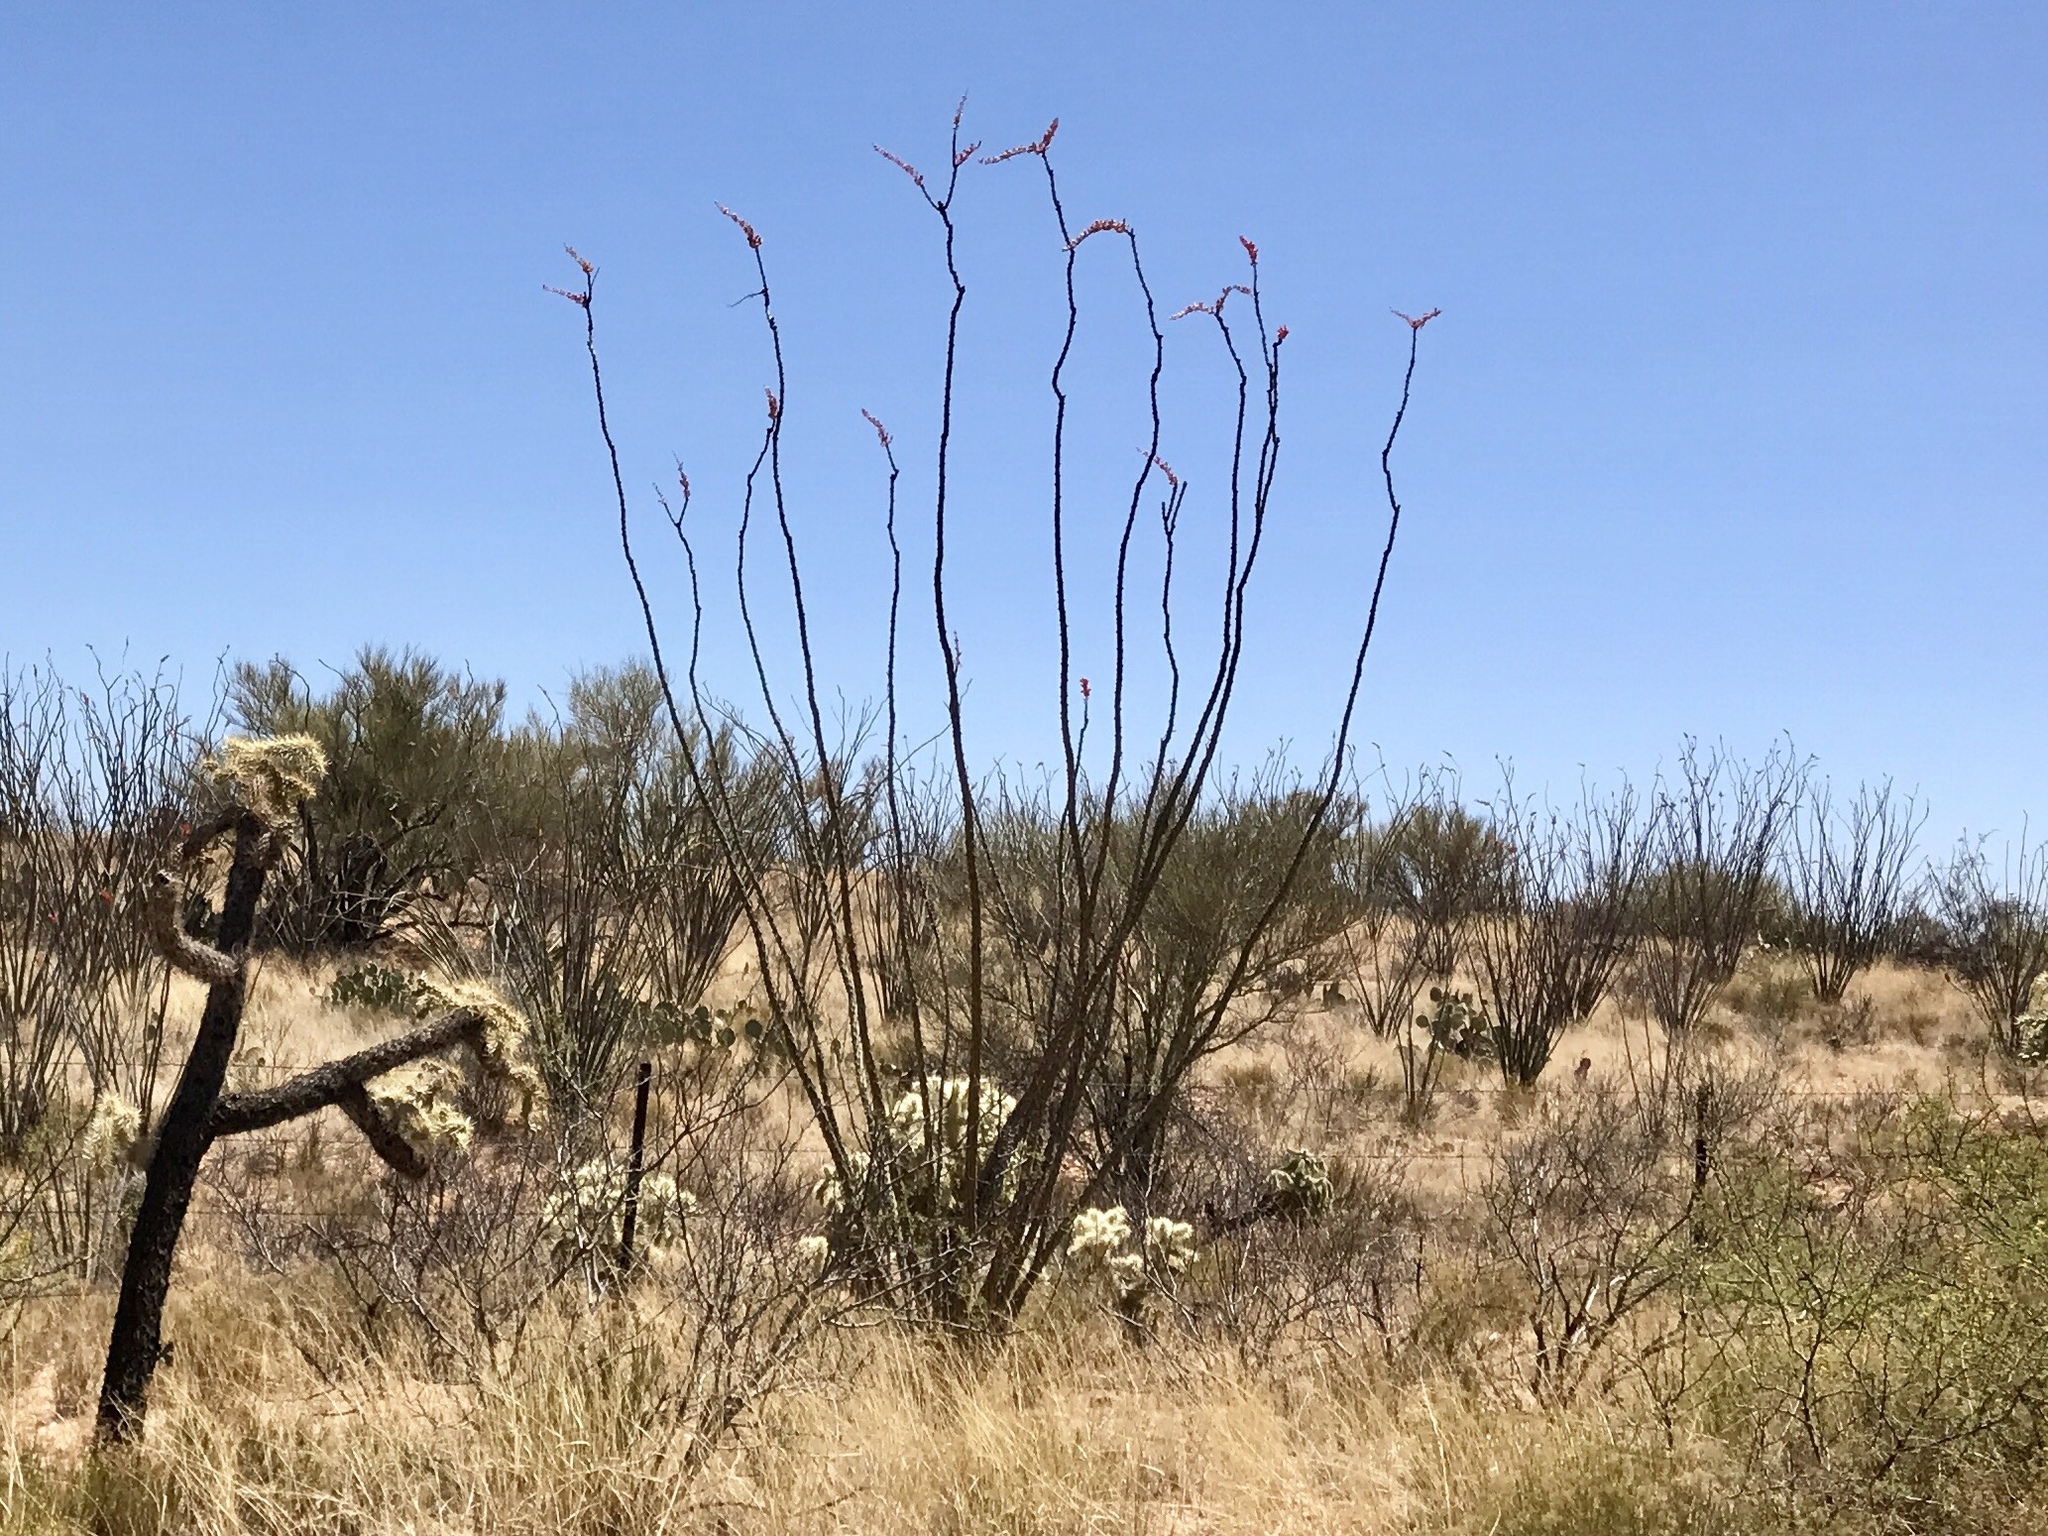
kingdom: Plantae
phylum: Tracheophyta
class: Magnoliopsida
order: Ericales
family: Fouquieriaceae
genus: Fouquieria
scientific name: Fouquieria splendens
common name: Vine-cactus
